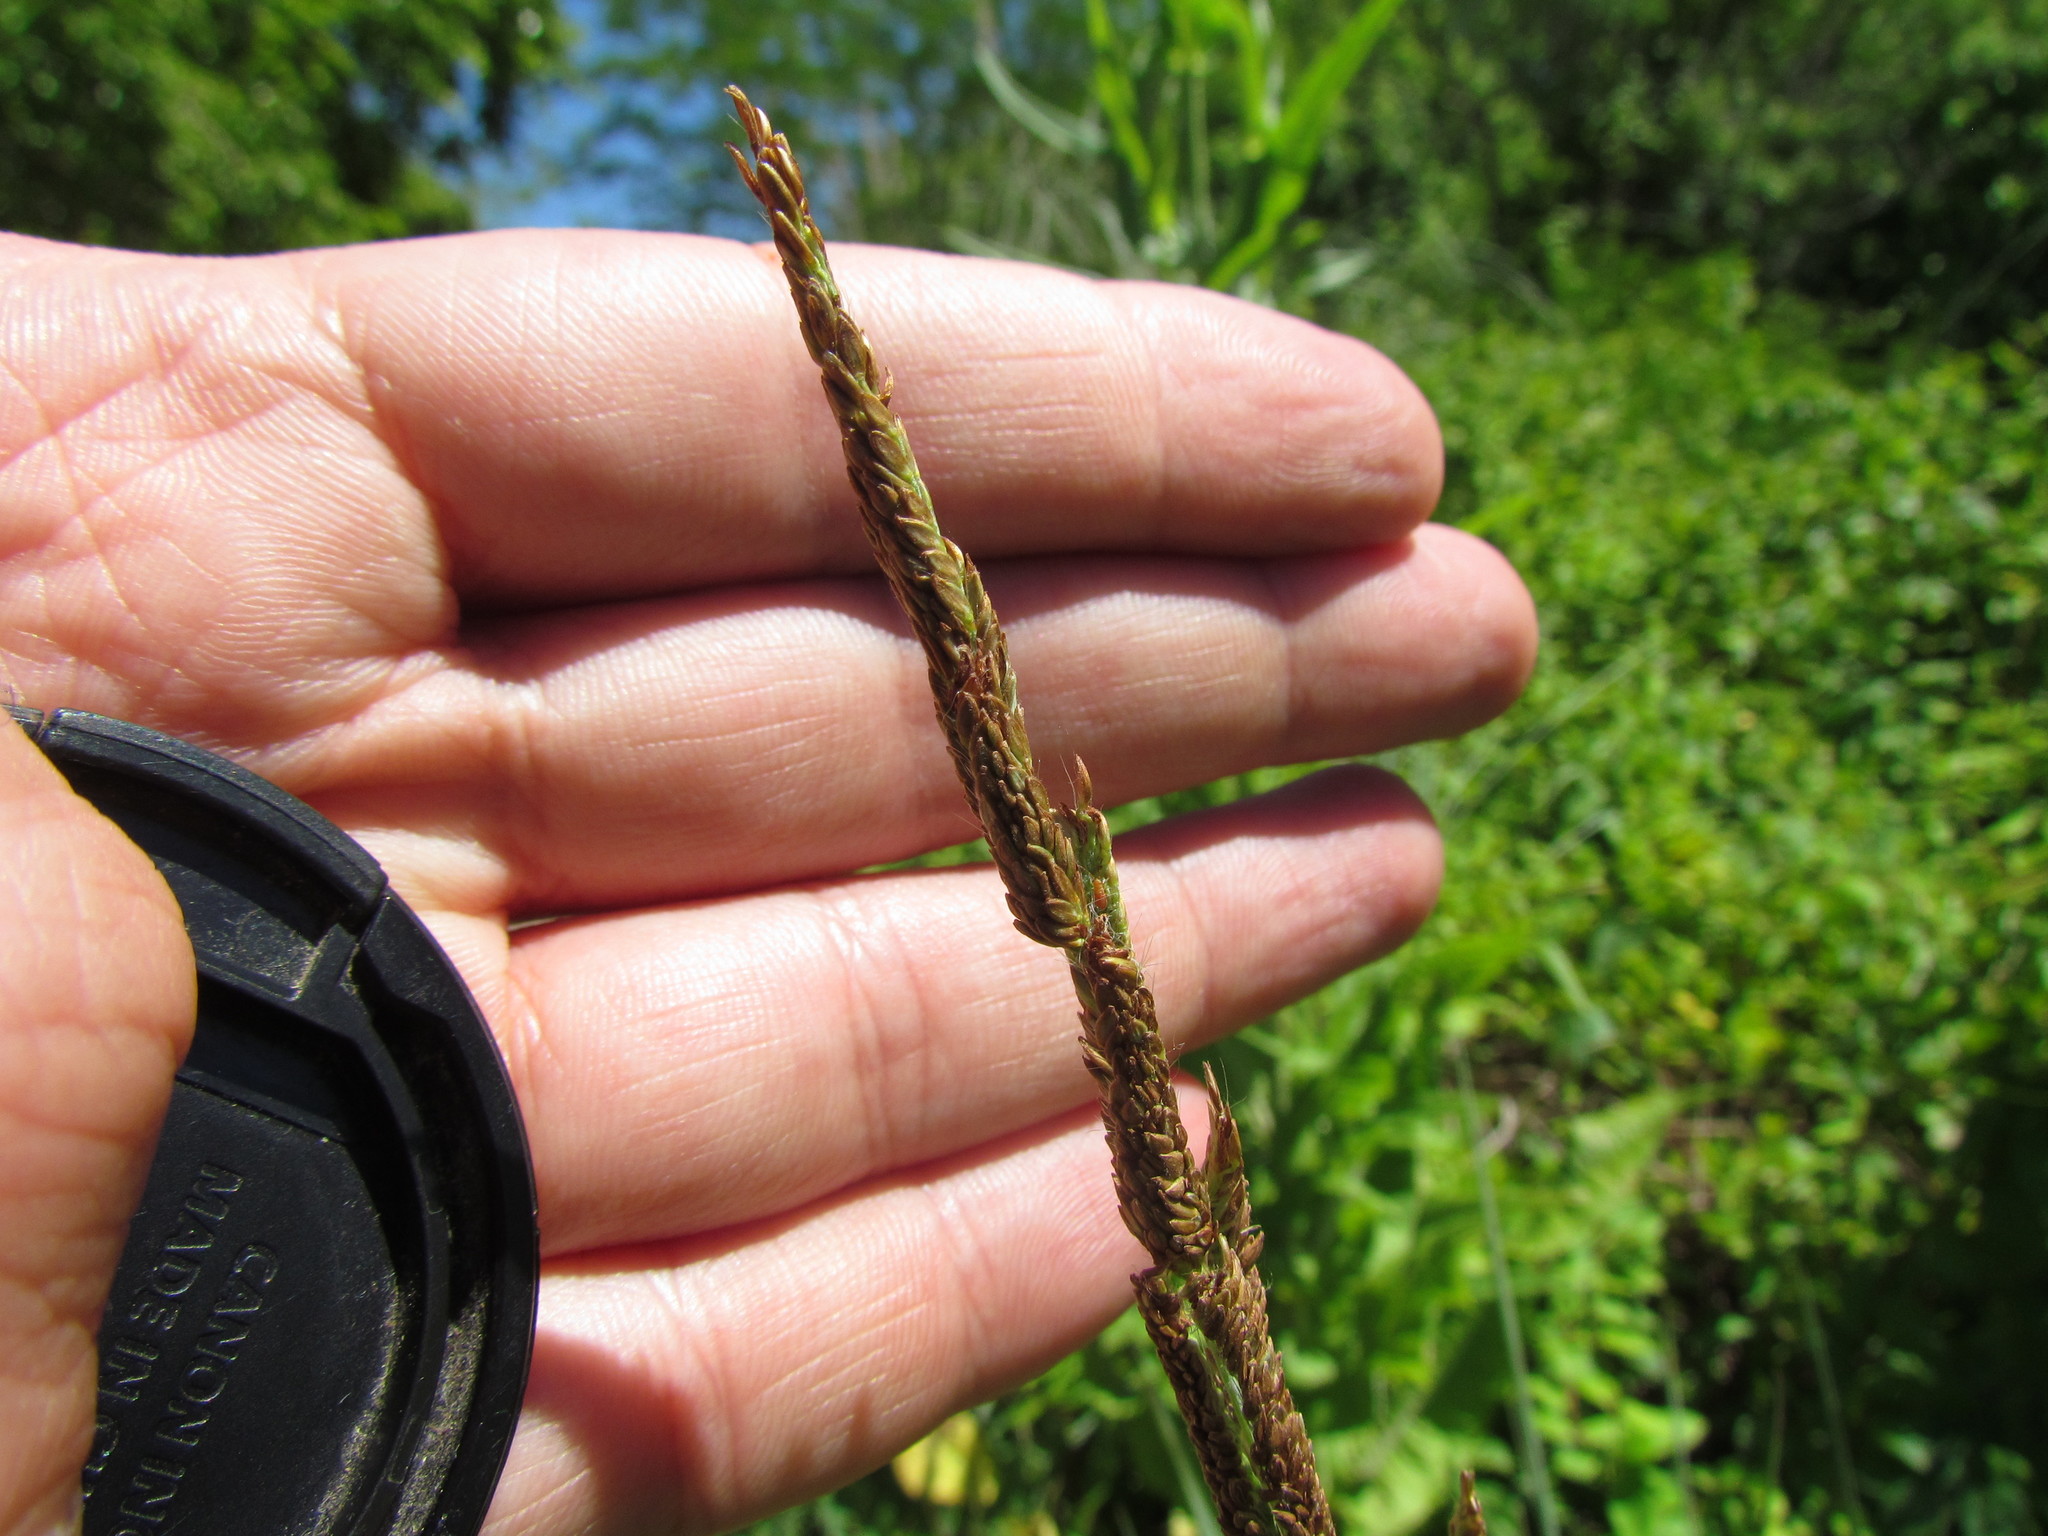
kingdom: Plantae
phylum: Tracheophyta
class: Liliopsida
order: Poales
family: Poaceae
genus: Paspalum
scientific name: Paspalum quadrifarium
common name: Tussock paspalum
